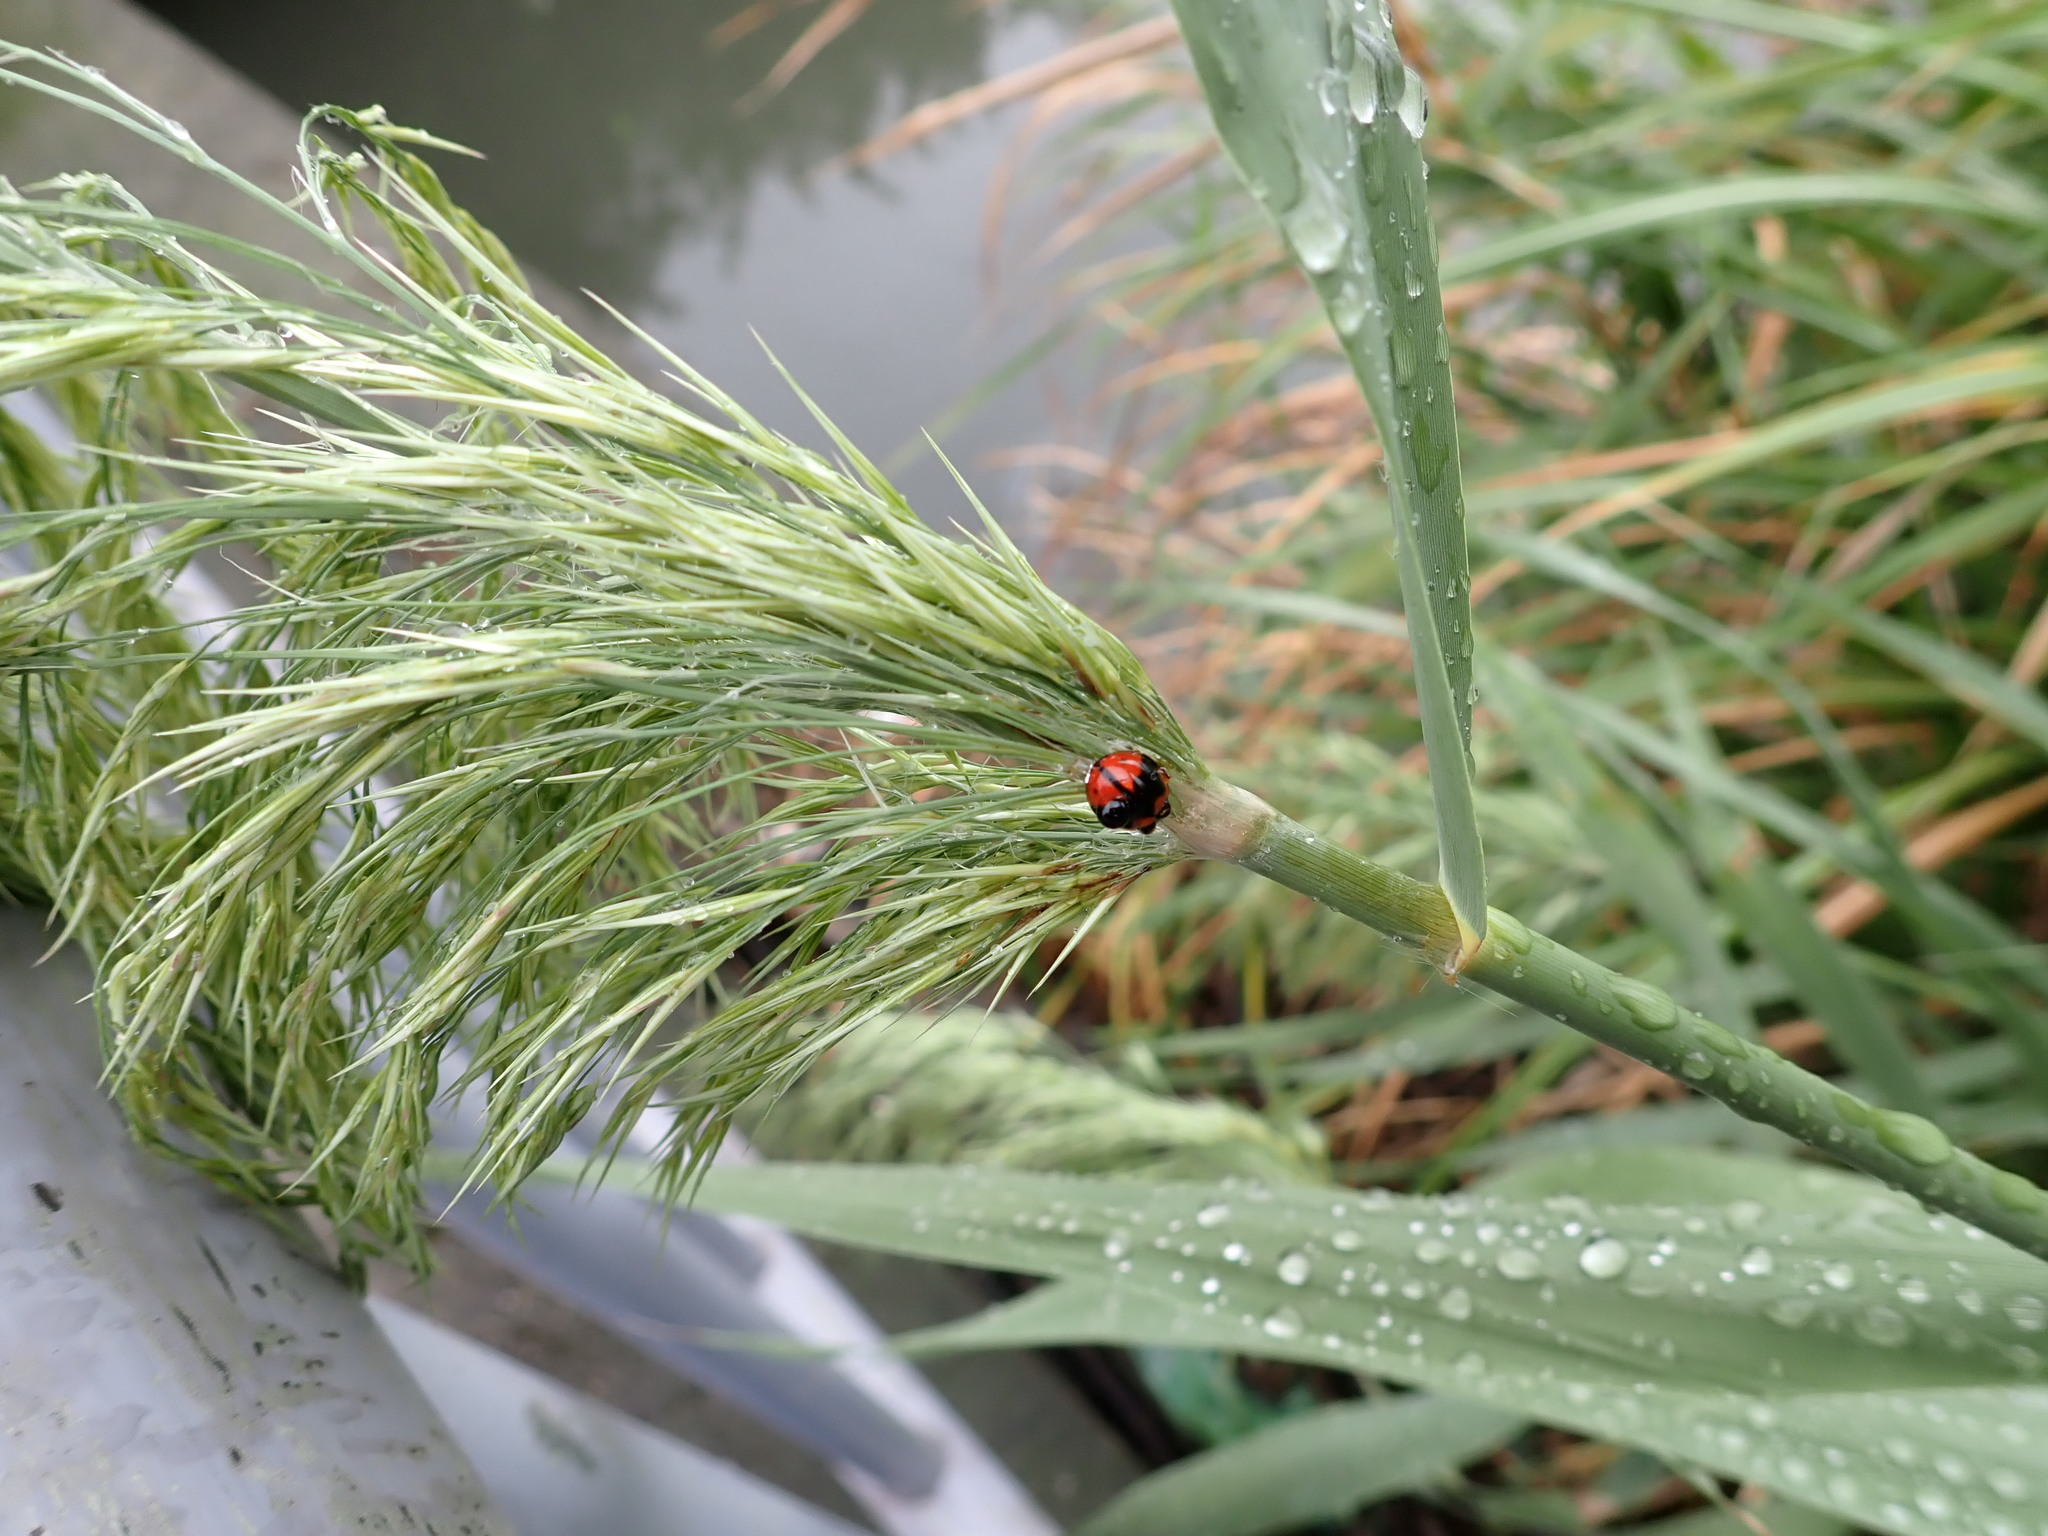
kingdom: Animalia
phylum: Arthropoda
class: Insecta
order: Coleoptera
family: Coccinellidae
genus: Cheilomenes
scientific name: Cheilomenes sexmaculata
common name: Ladybird beetle
